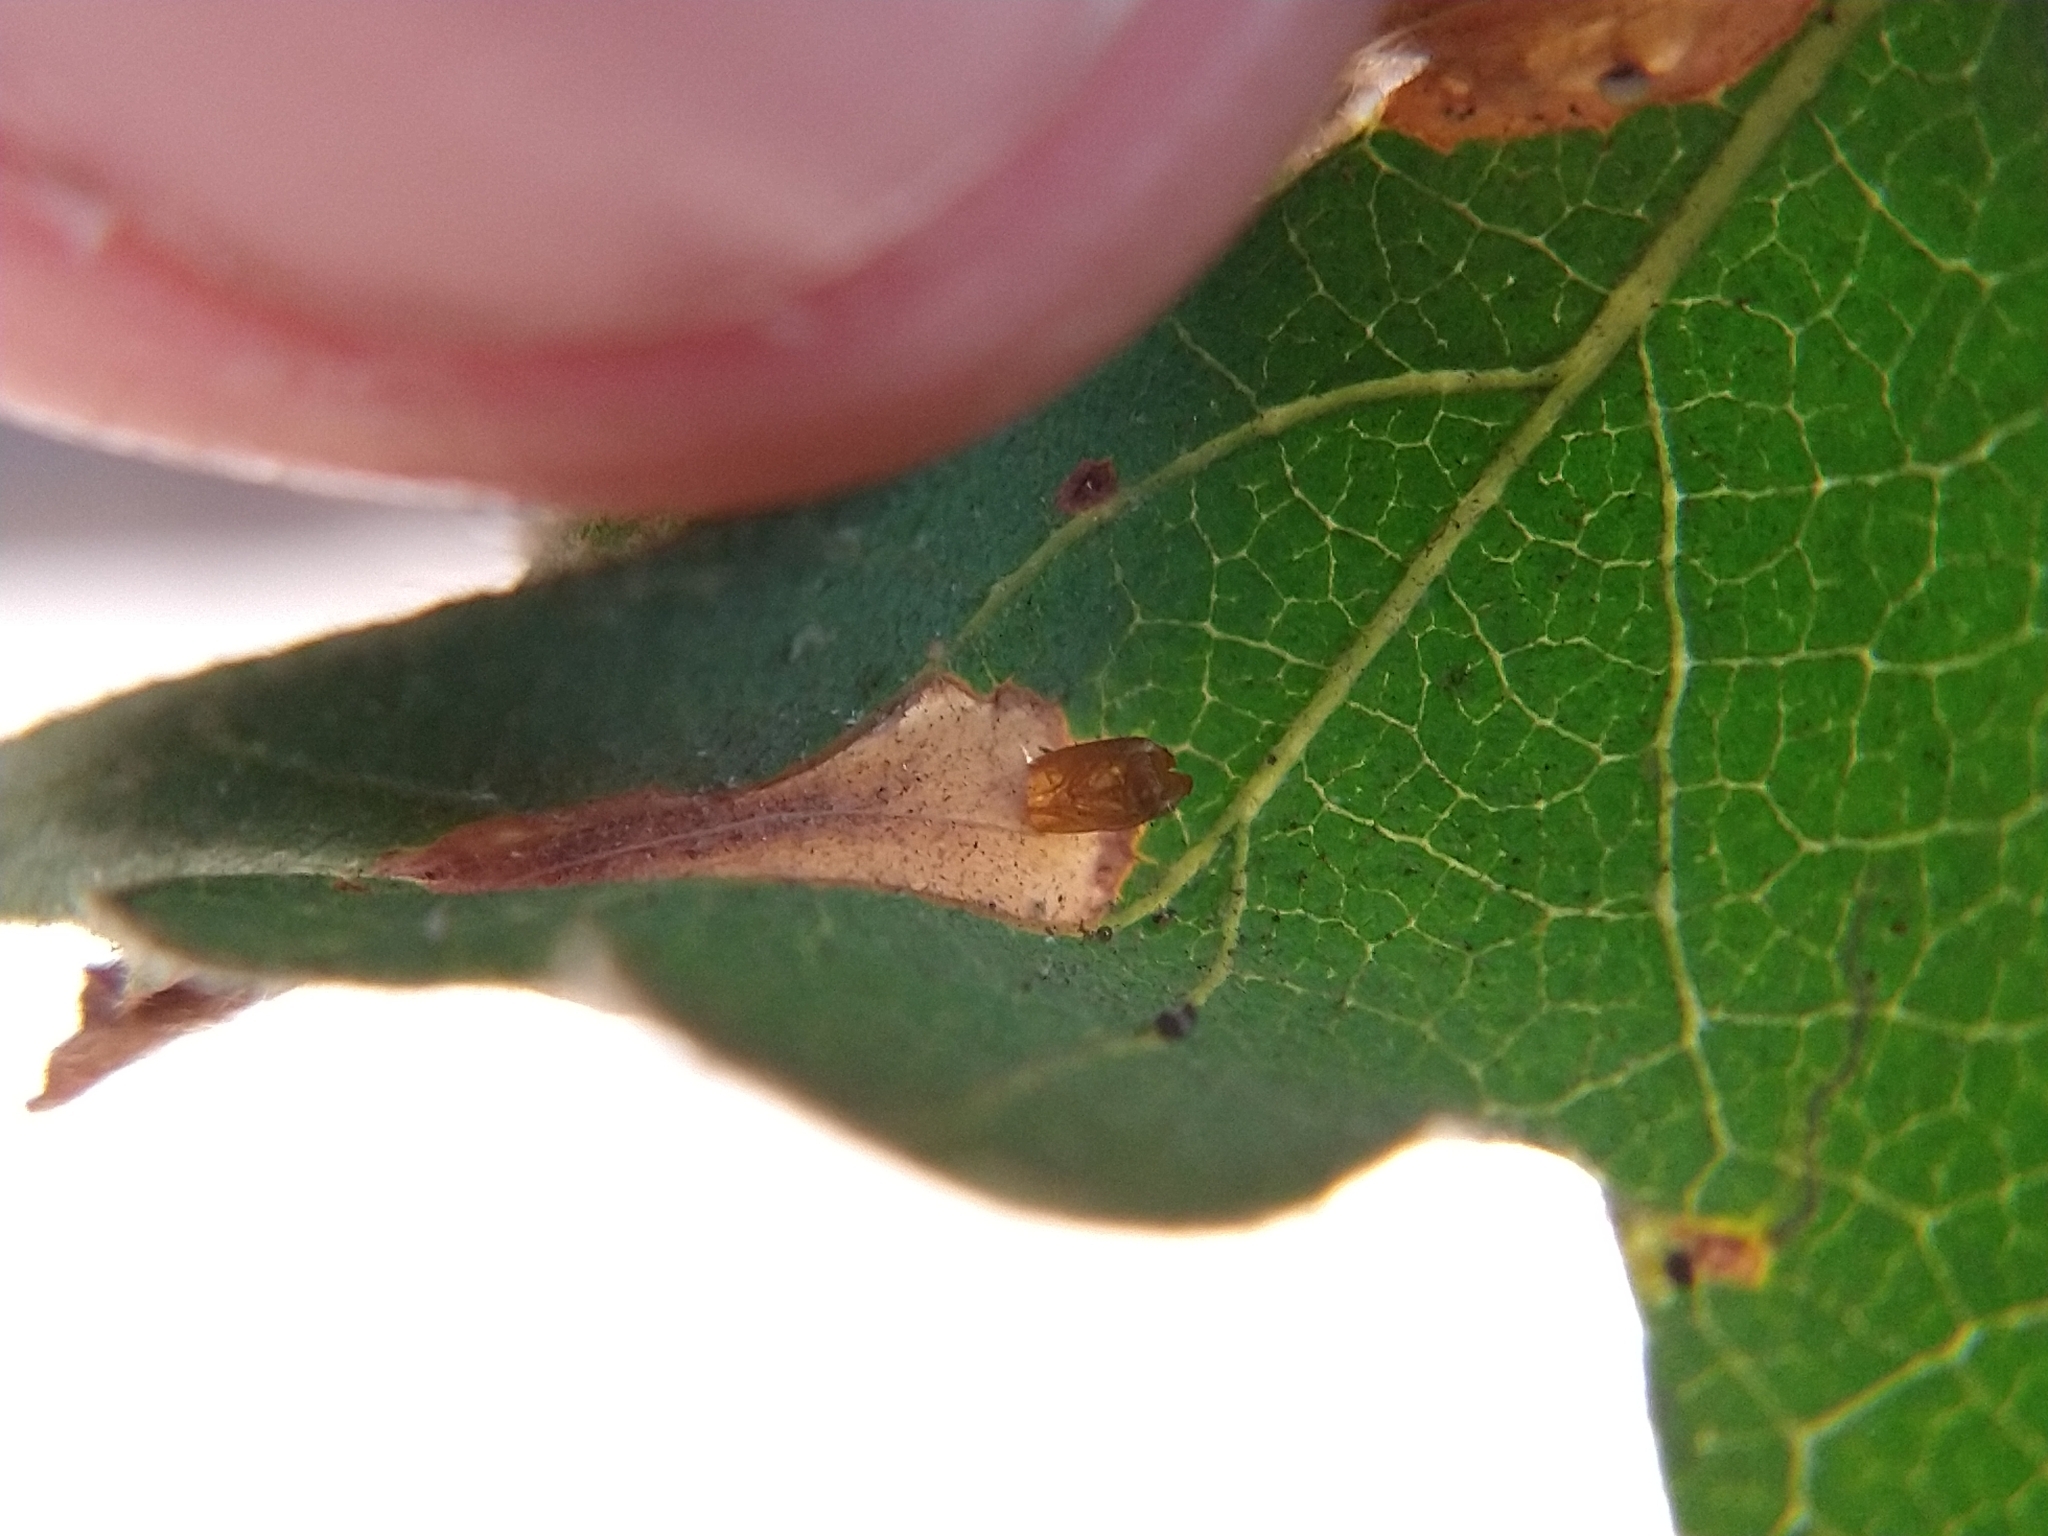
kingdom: Animalia
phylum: Arthropoda
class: Insecta
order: Lepidoptera
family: Gracillariidae
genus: Phyllonorycter
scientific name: Phyllonorycter
